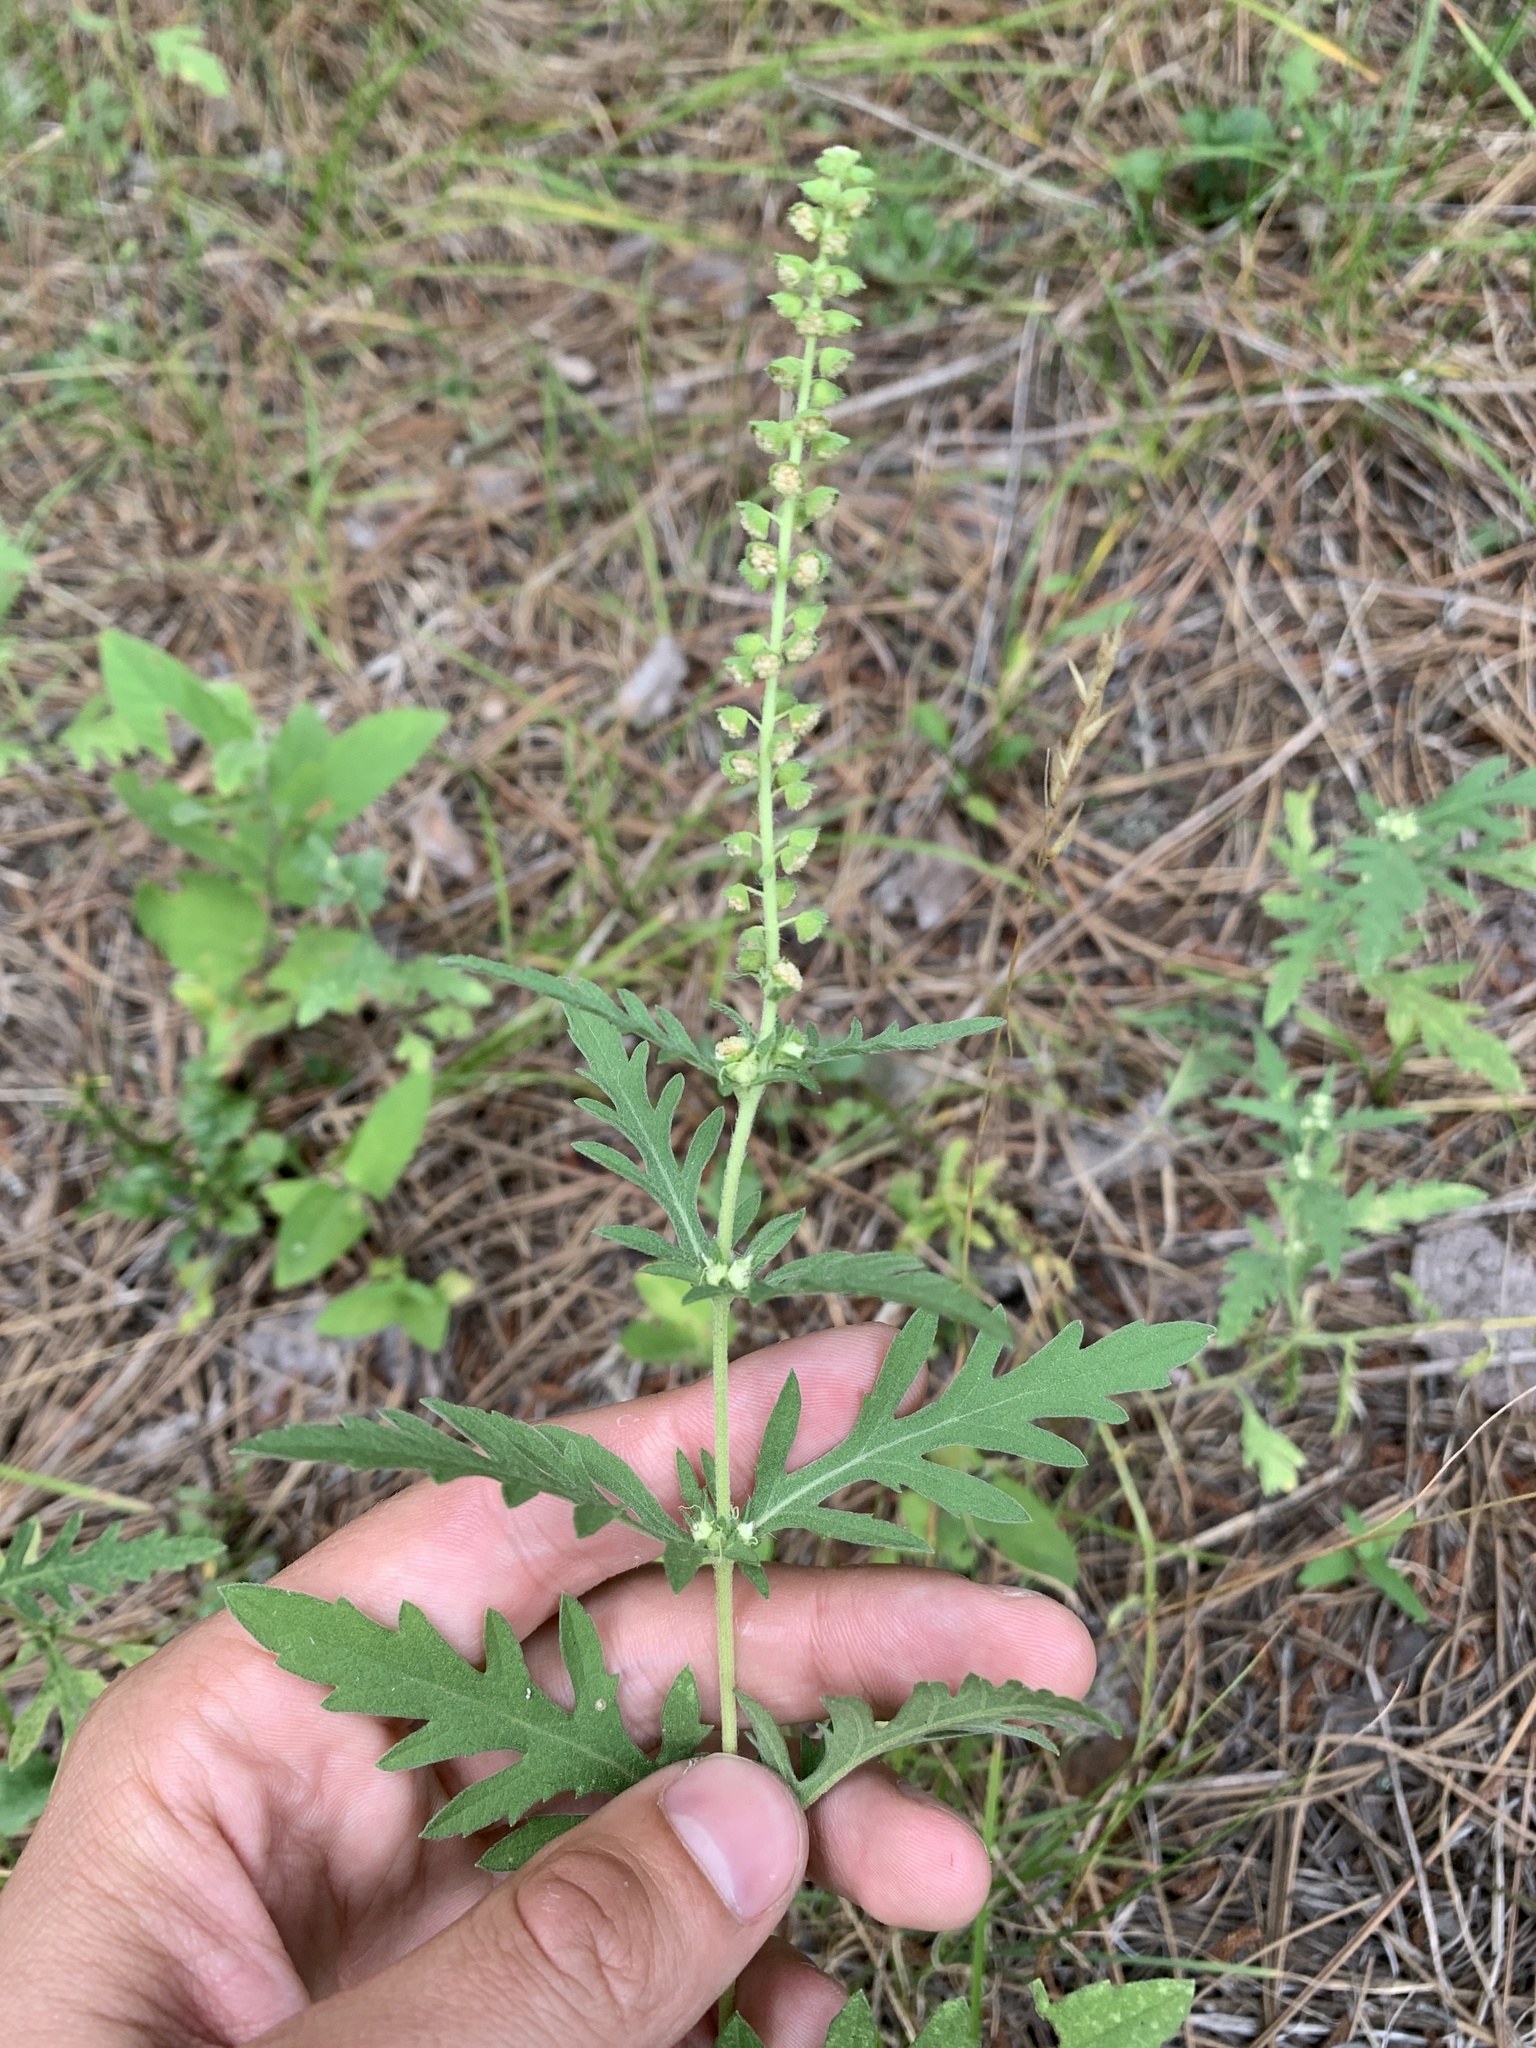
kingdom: Plantae
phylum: Tracheophyta
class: Magnoliopsida
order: Asterales
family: Asteraceae
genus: Ambrosia
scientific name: Ambrosia psilostachya
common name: Perennial ragweed
